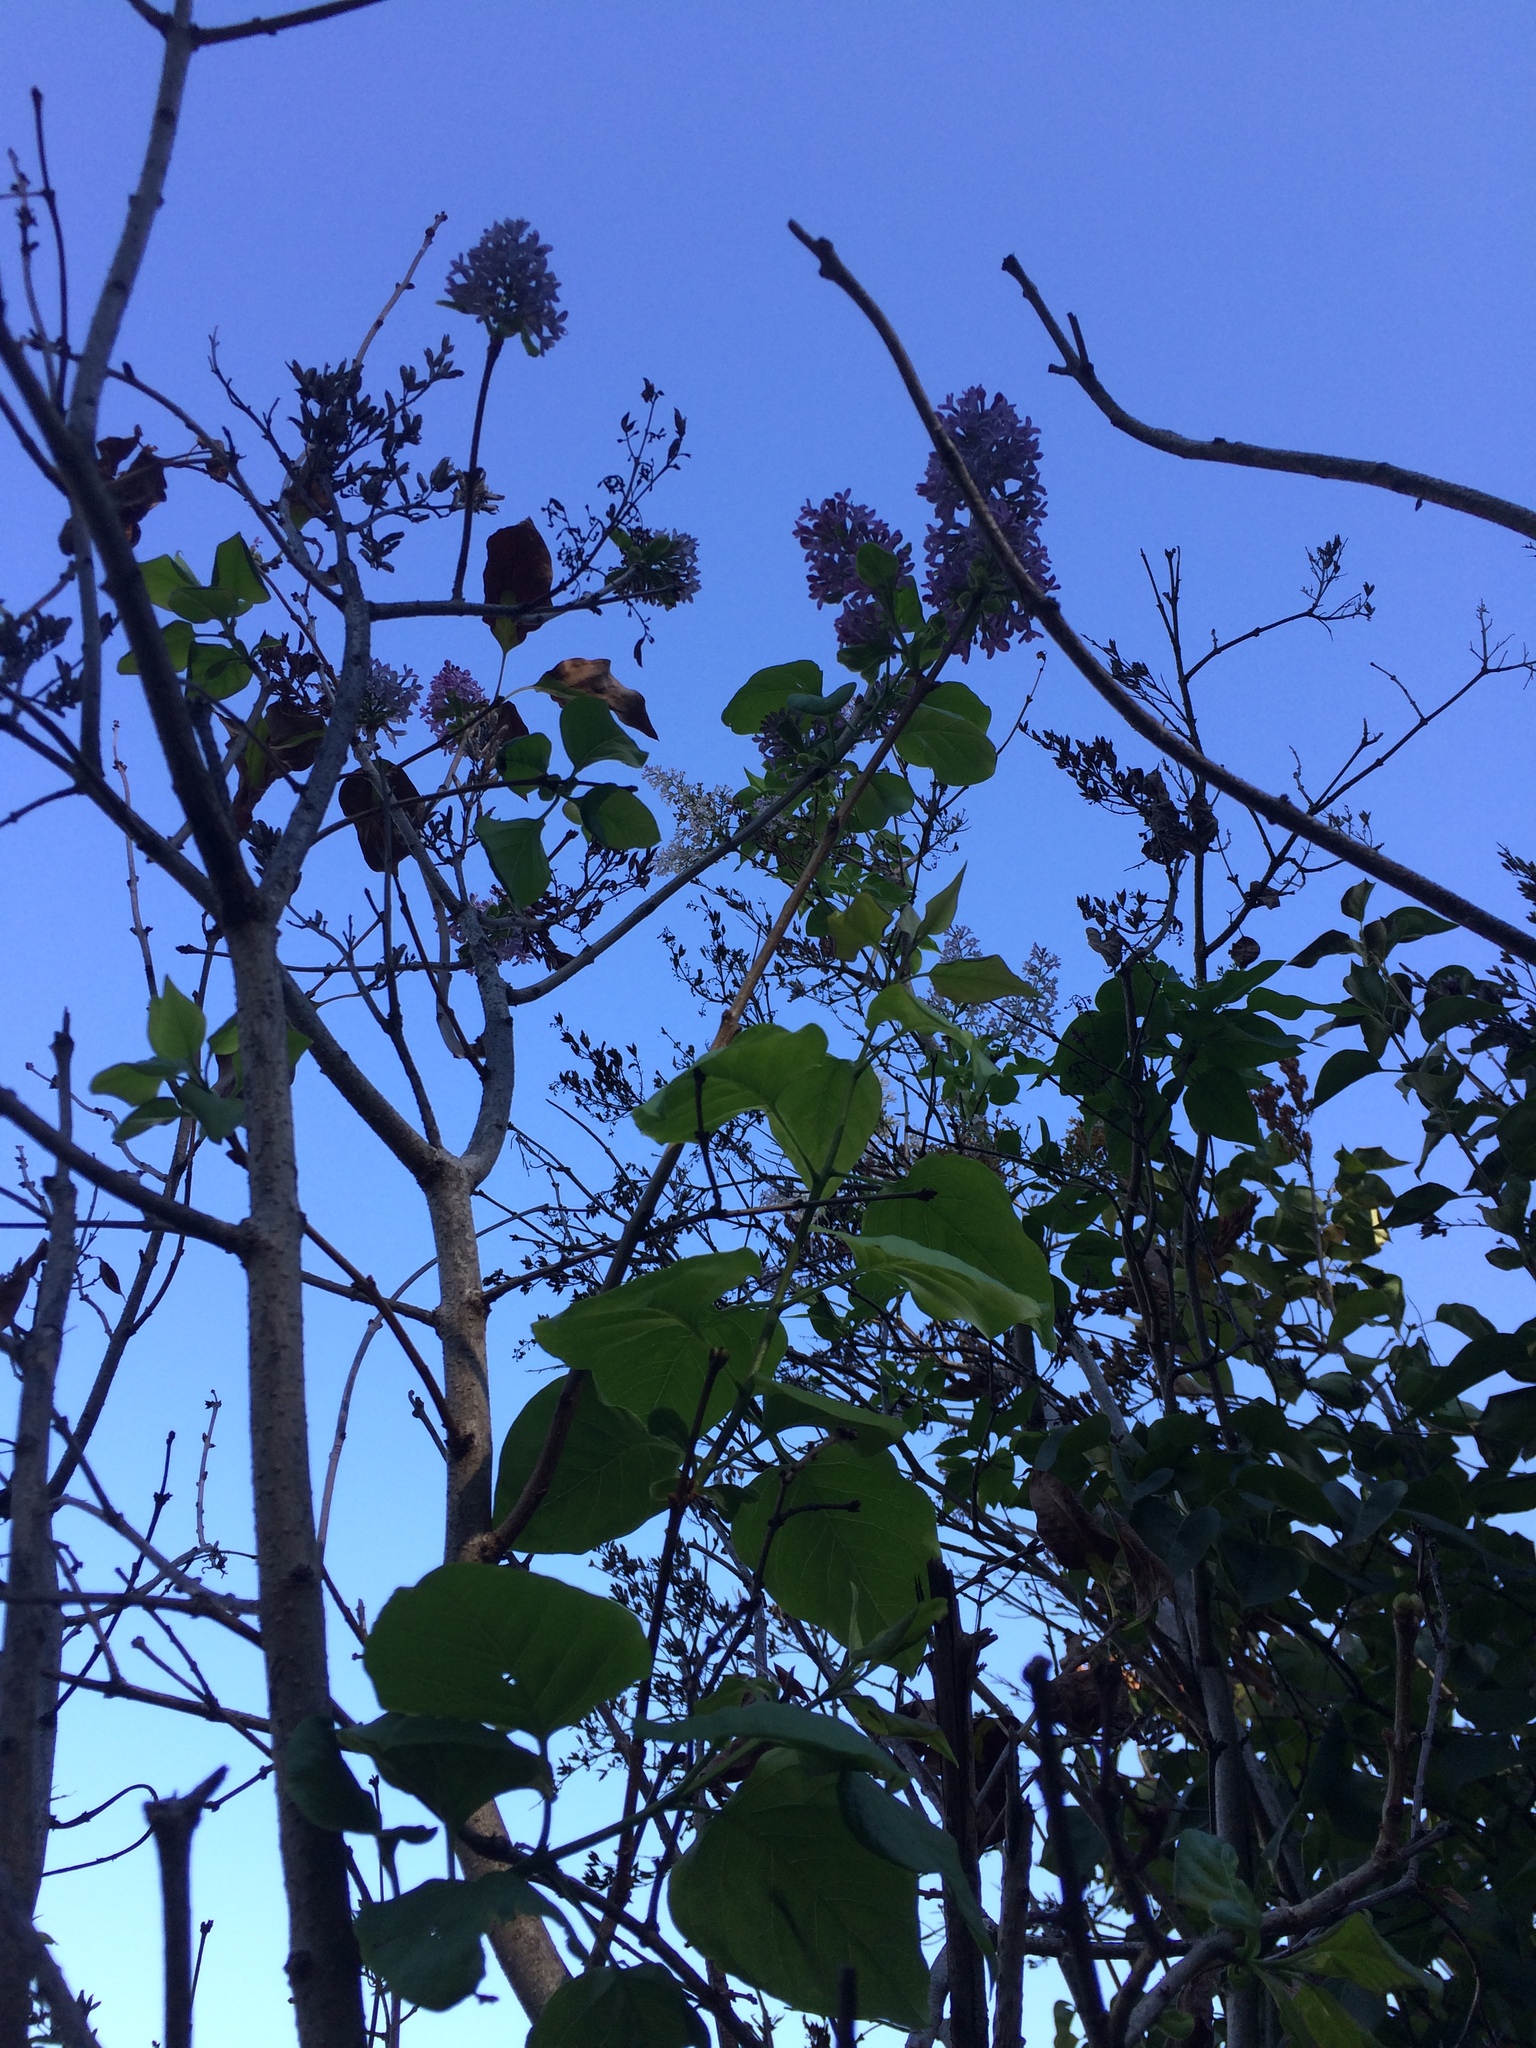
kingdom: Plantae
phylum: Tracheophyta
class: Magnoliopsida
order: Lamiales
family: Oleaceae
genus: Syringa
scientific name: Syringa vulgaris
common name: Common lilac
